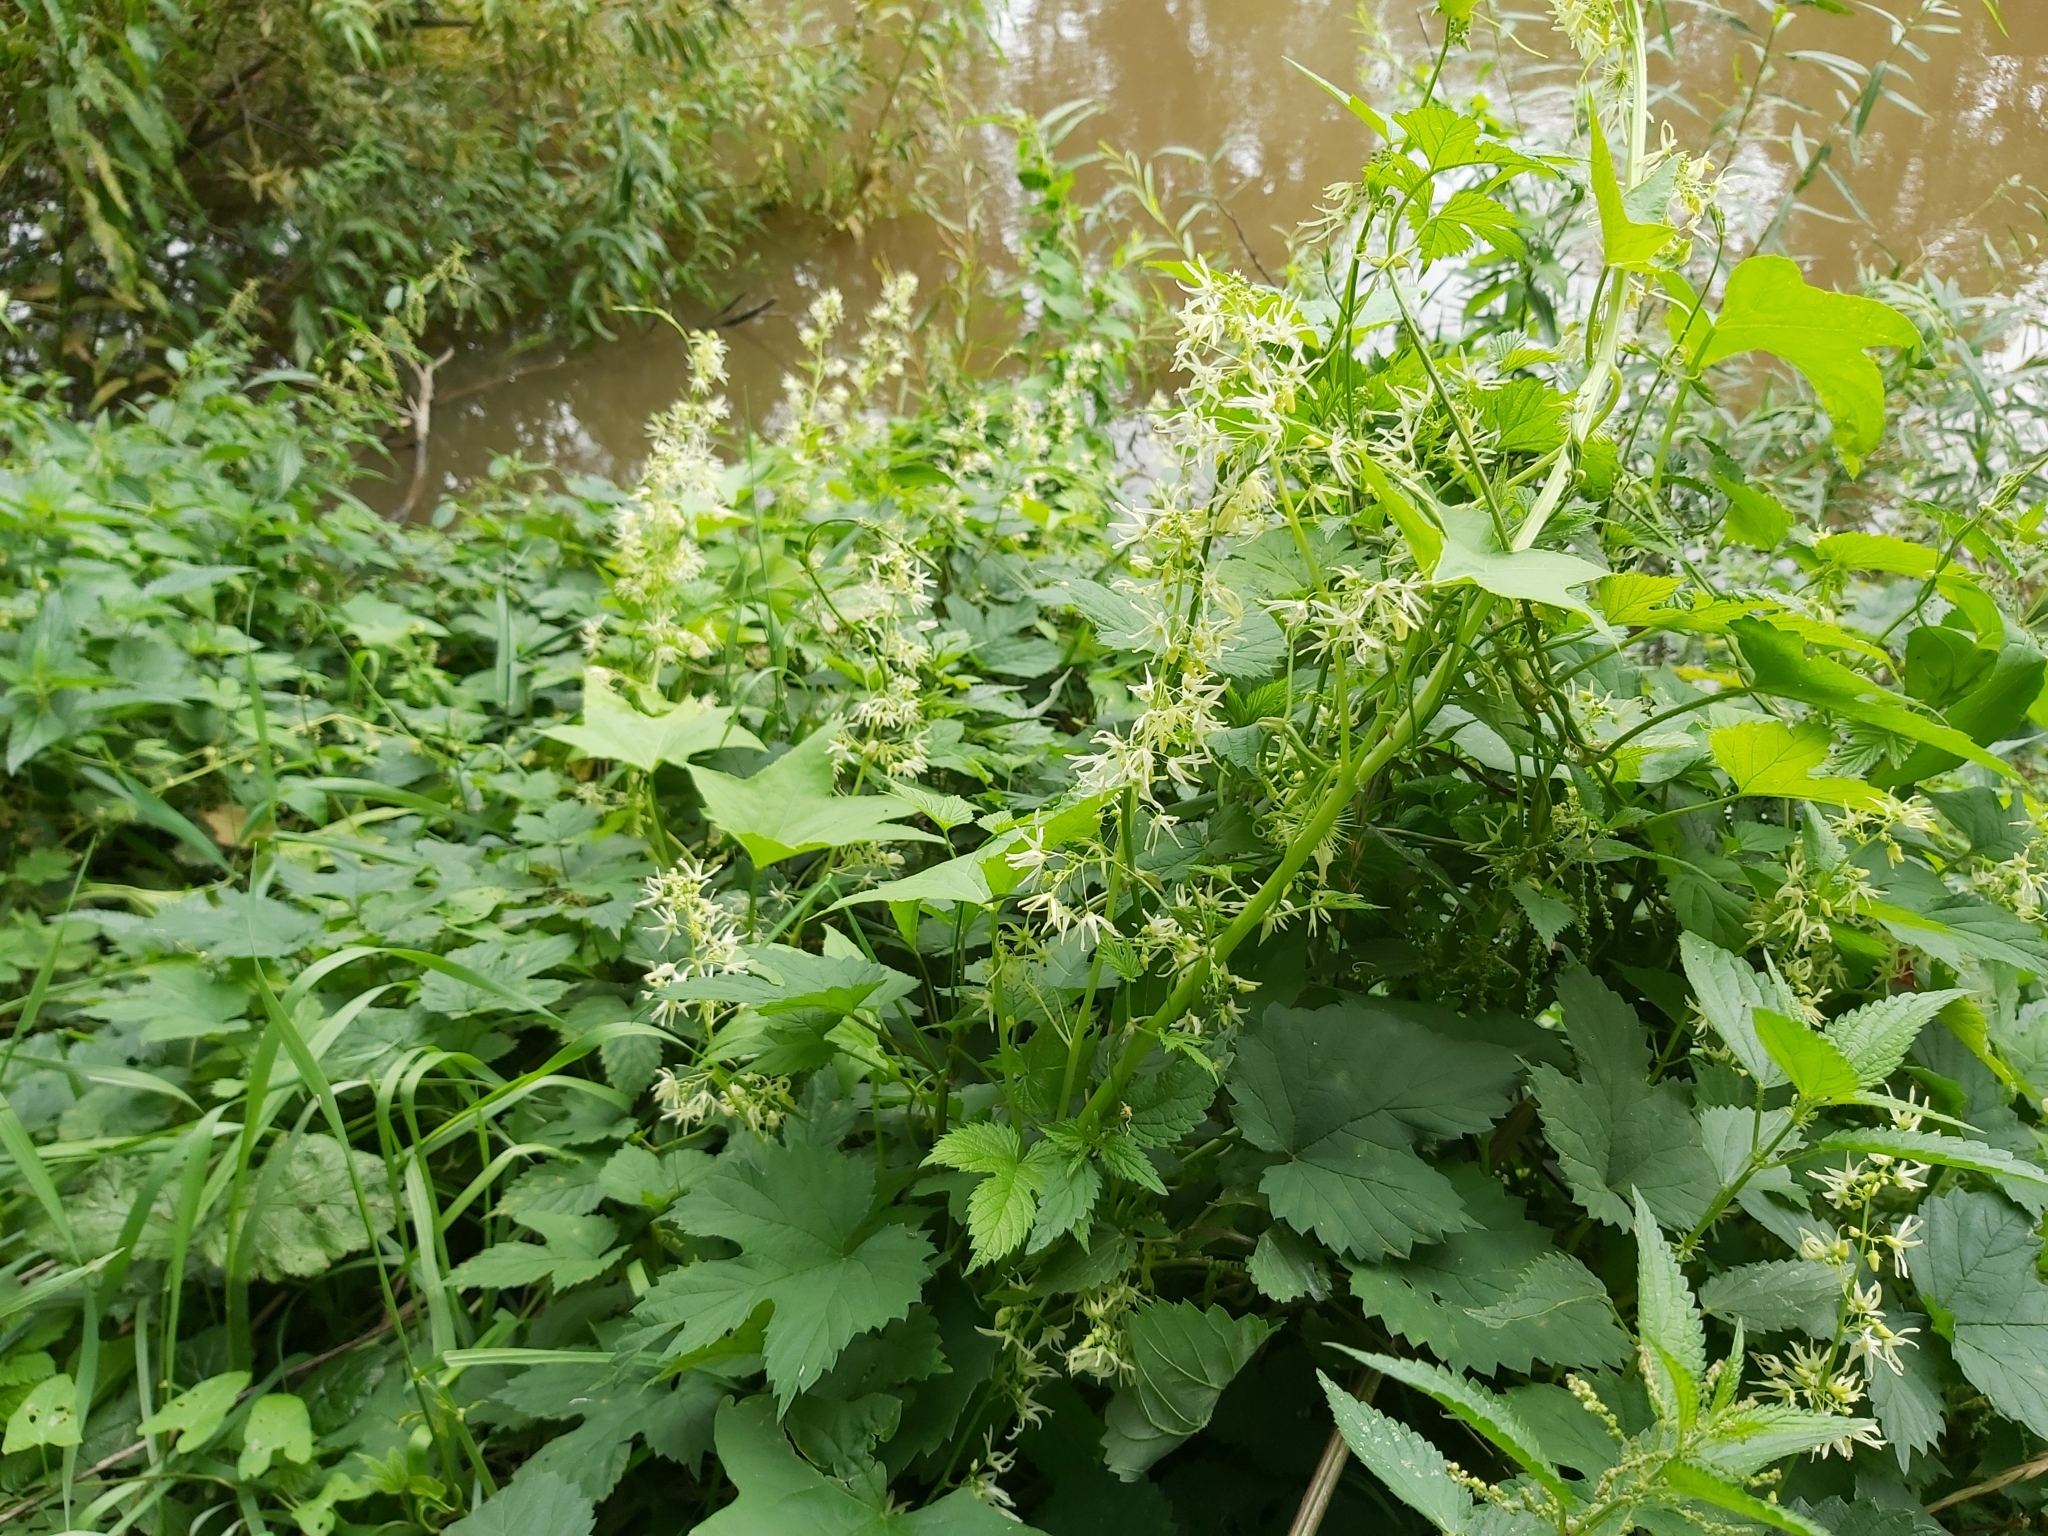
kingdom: Plantae
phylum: Tracheophyta
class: Magnoliopsida
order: Cucurbitales
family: Cucurbitaceae
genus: Echinocystis
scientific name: Echinocystis lobata
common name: Wild cucumber
